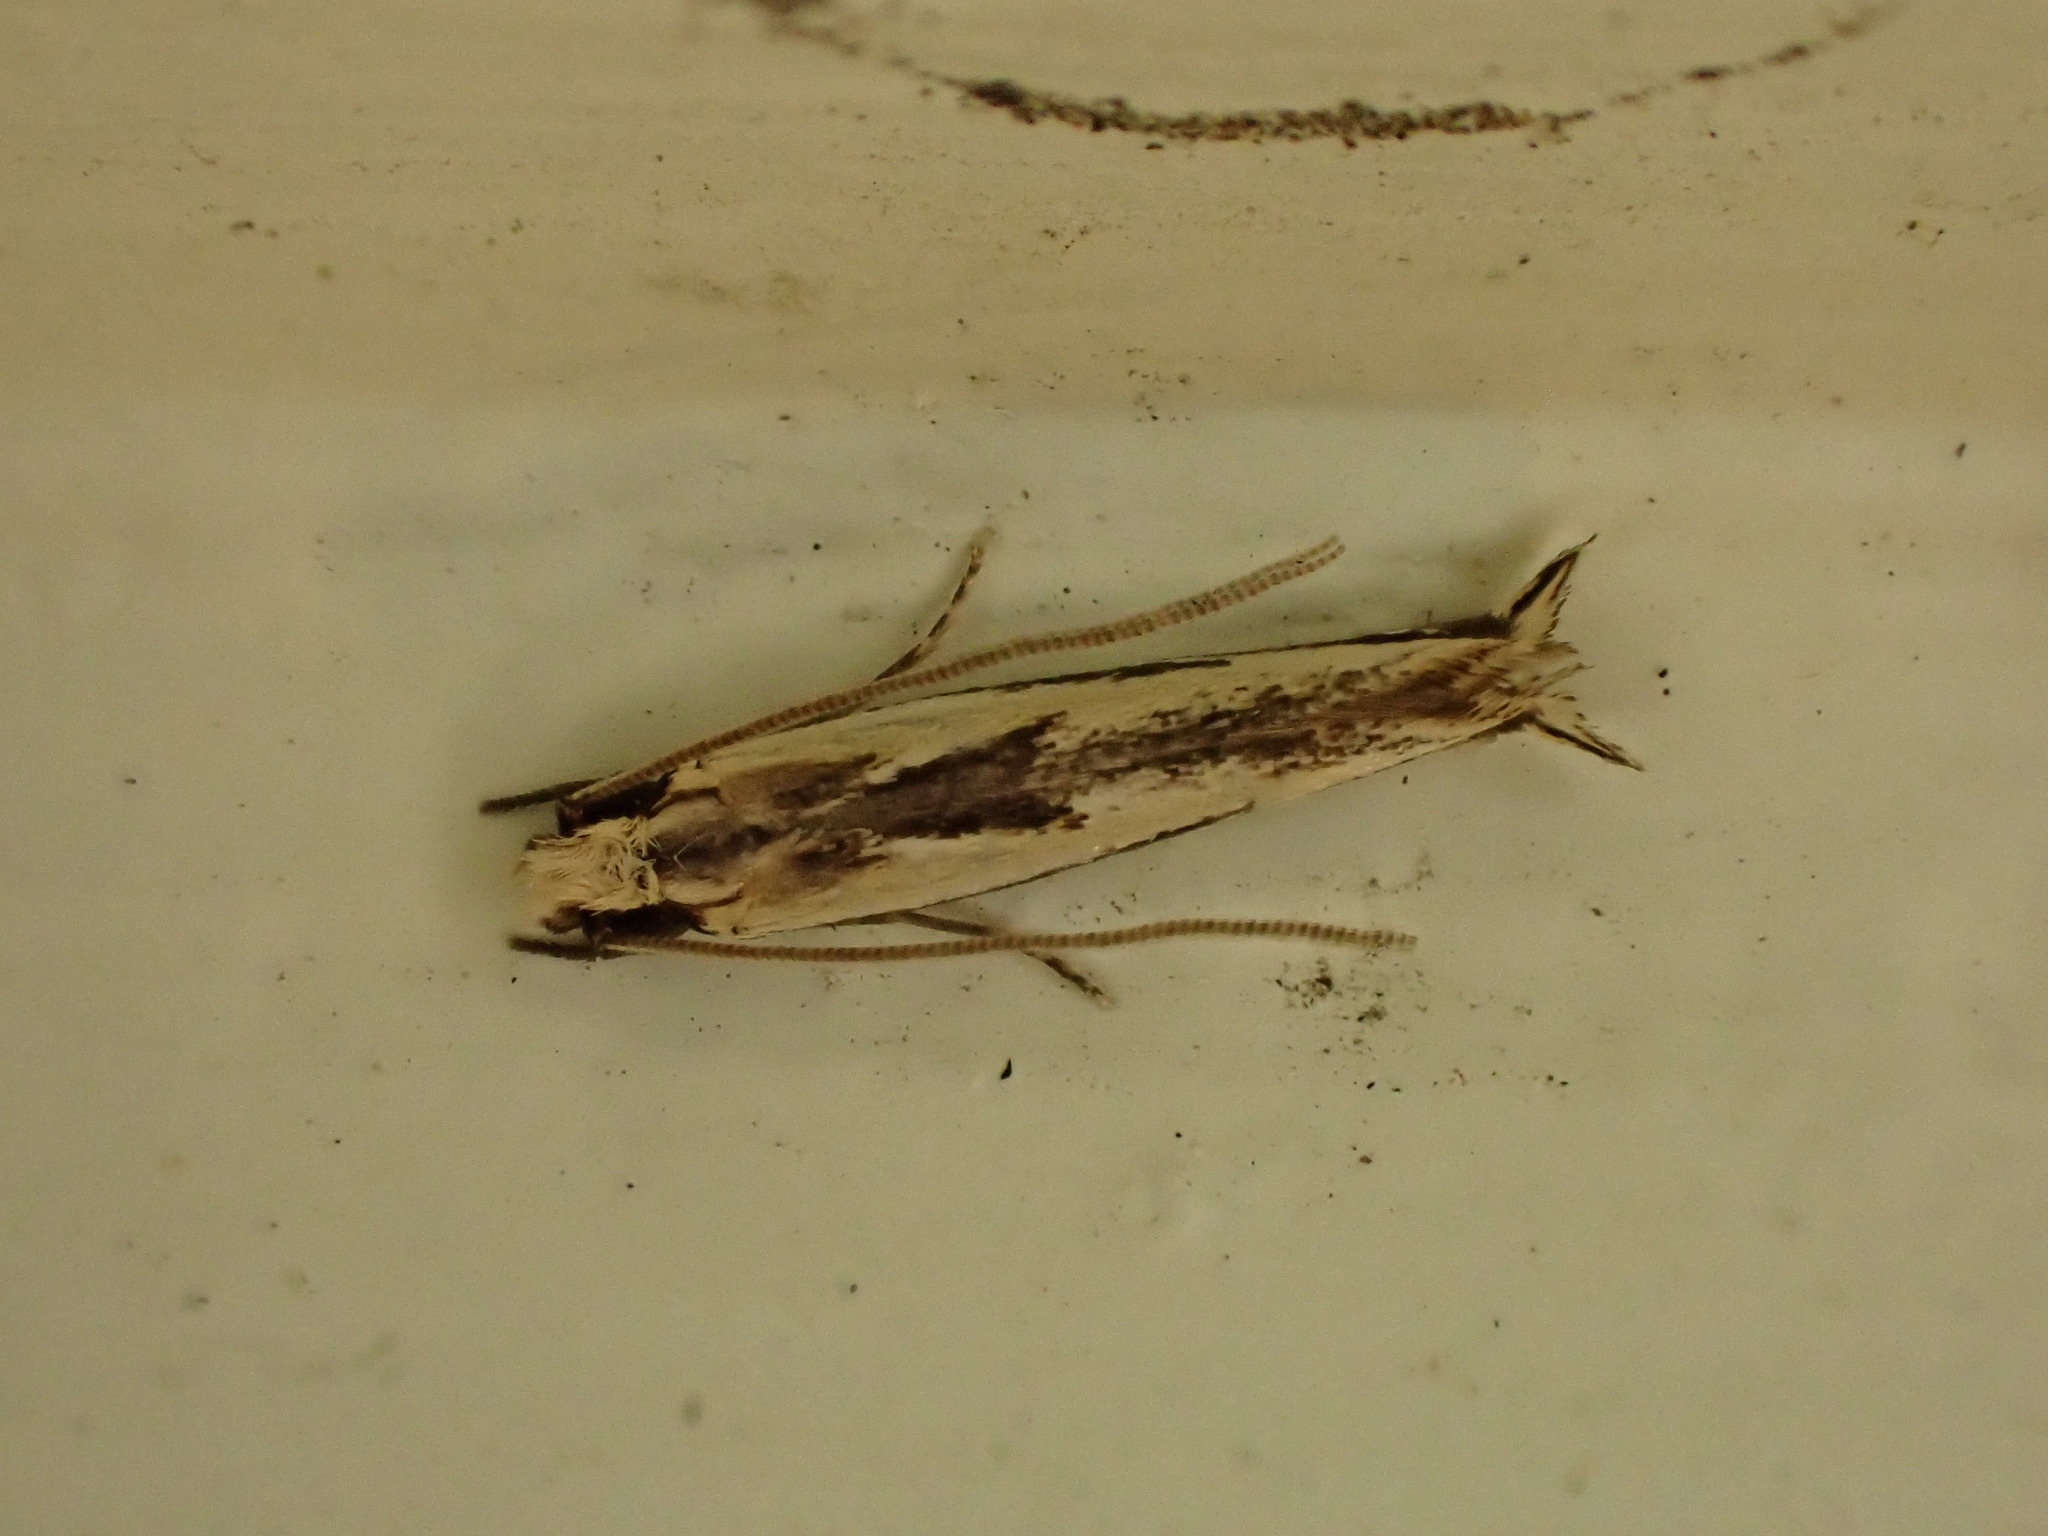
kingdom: Animalia
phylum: Arthropoda
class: Insecta
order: Lepidoptera
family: Tineidae
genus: Erechthias
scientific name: Erechthias terminella
